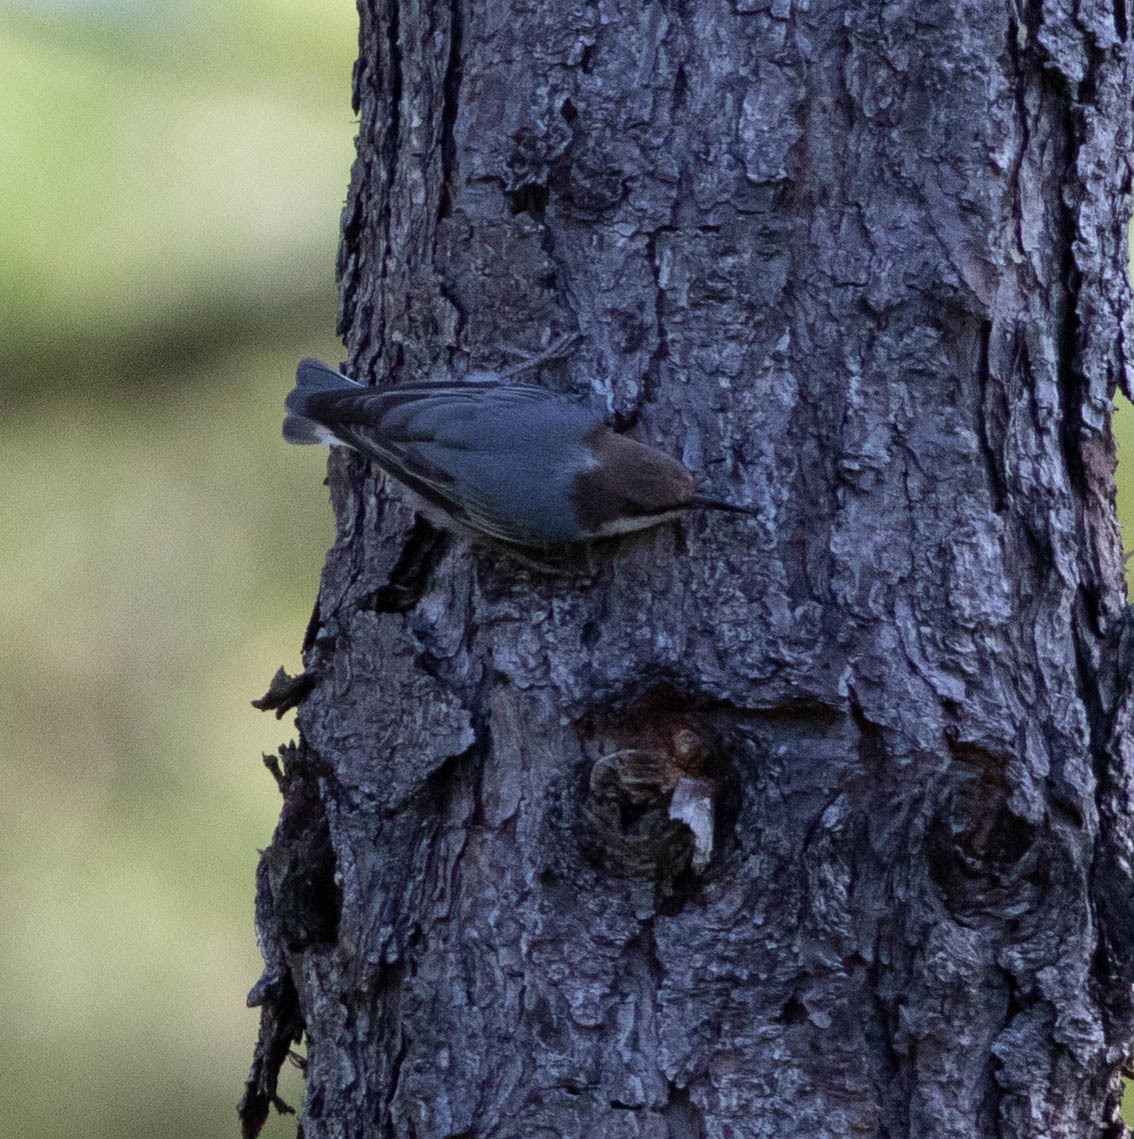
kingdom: Animalia
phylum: Chordata
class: Aves
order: Passeriformes
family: Sittidae
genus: Sitta
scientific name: Sitta pusilla
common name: Brown-headed nuthatch
